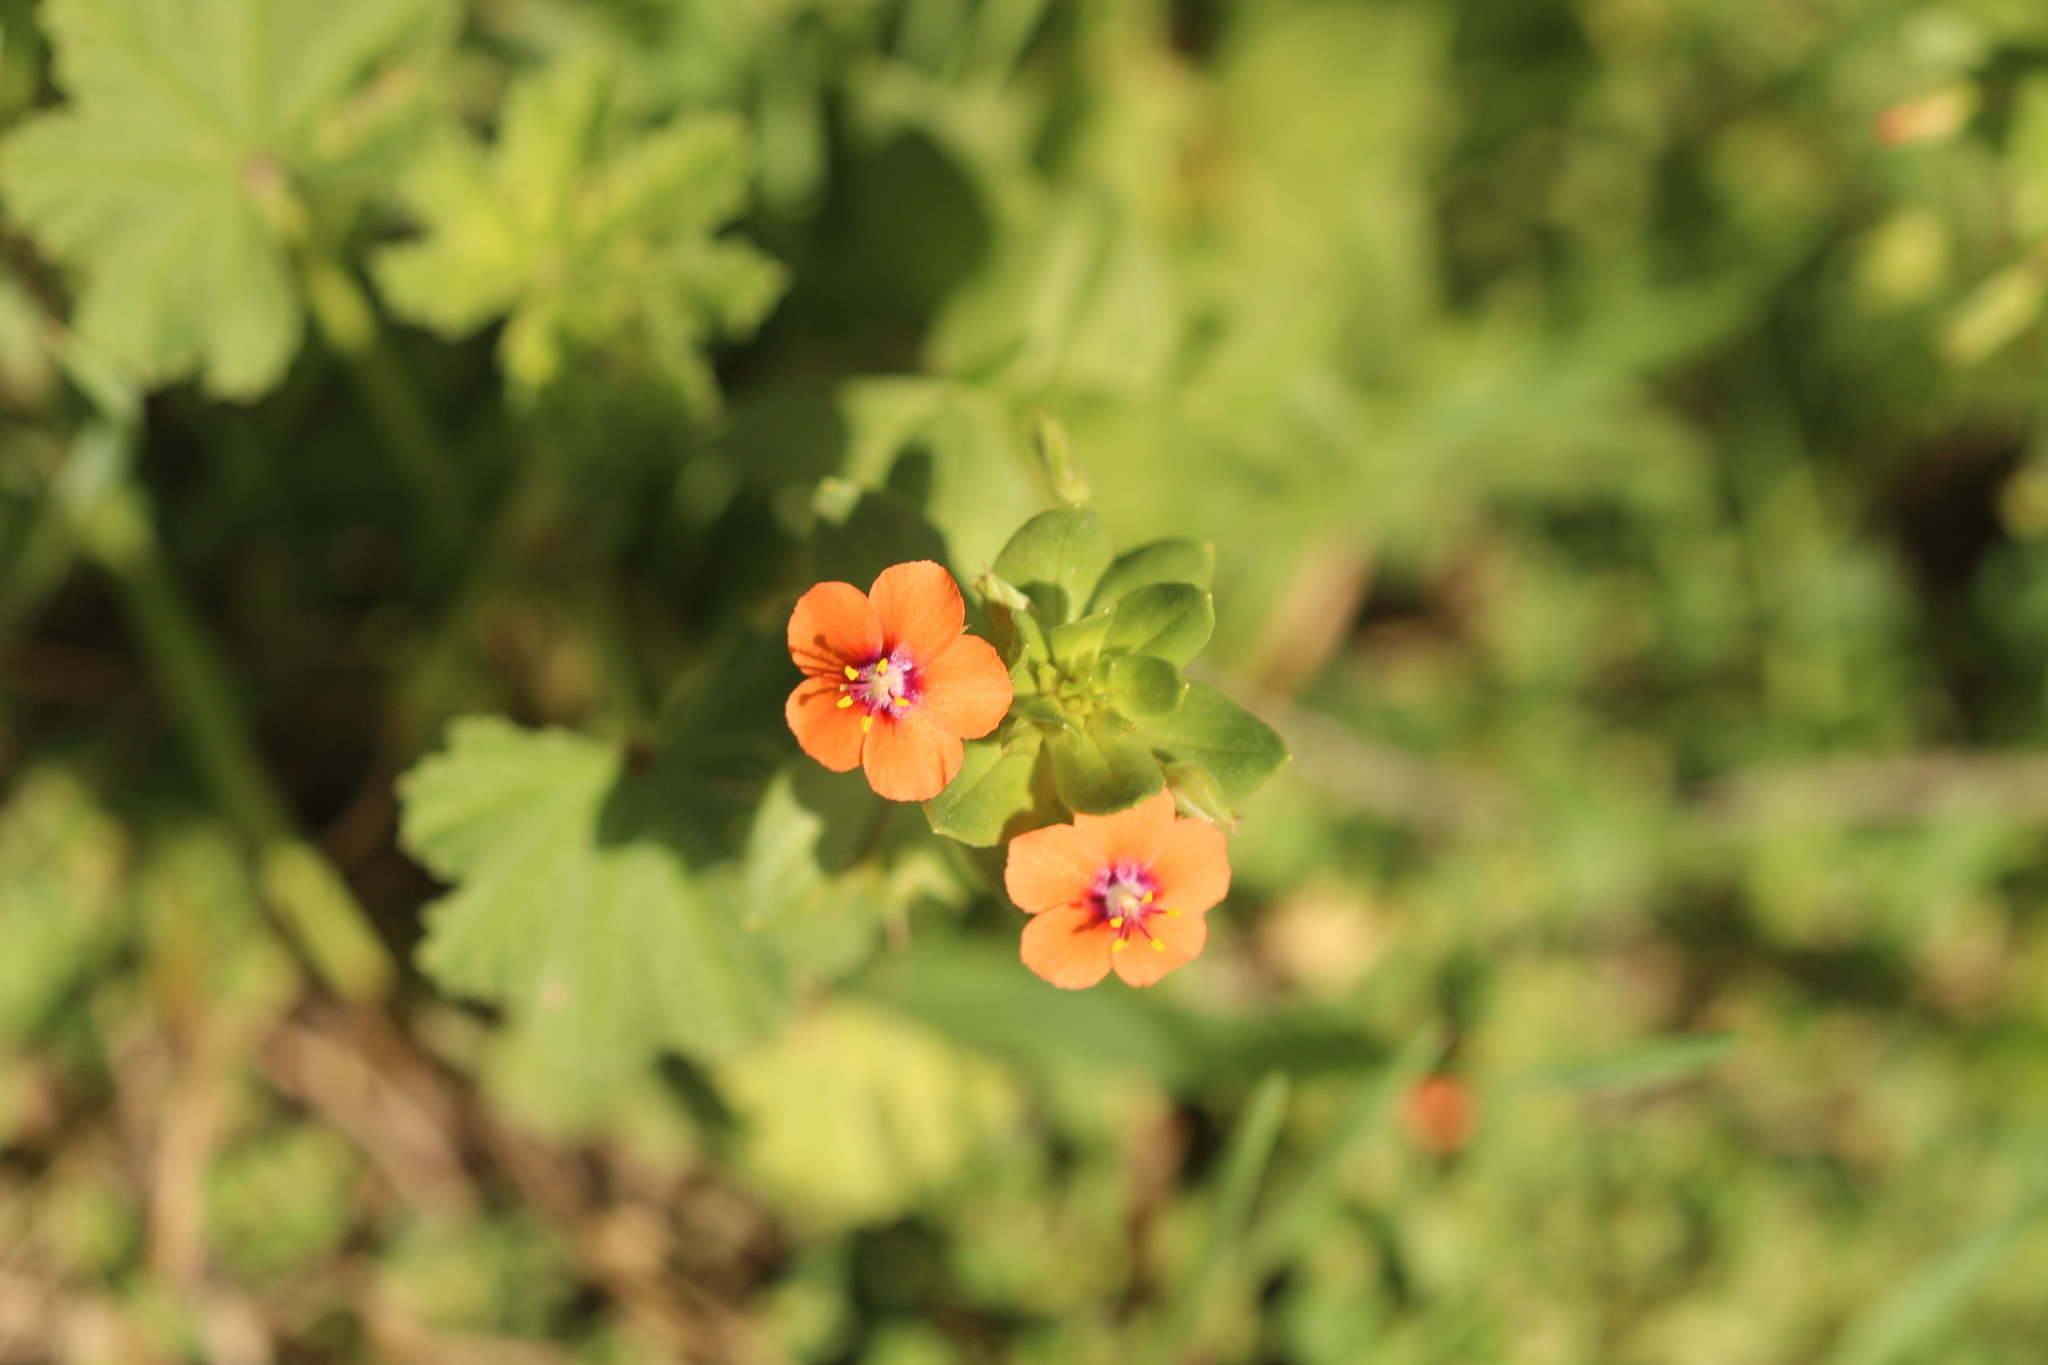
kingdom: Plantae
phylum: Tracheophyta
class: Magnoliopsida
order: Ericales
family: Primulaceae
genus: Lysimachia
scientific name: Lysimachia arvensis
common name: Scarlet pimpernel
